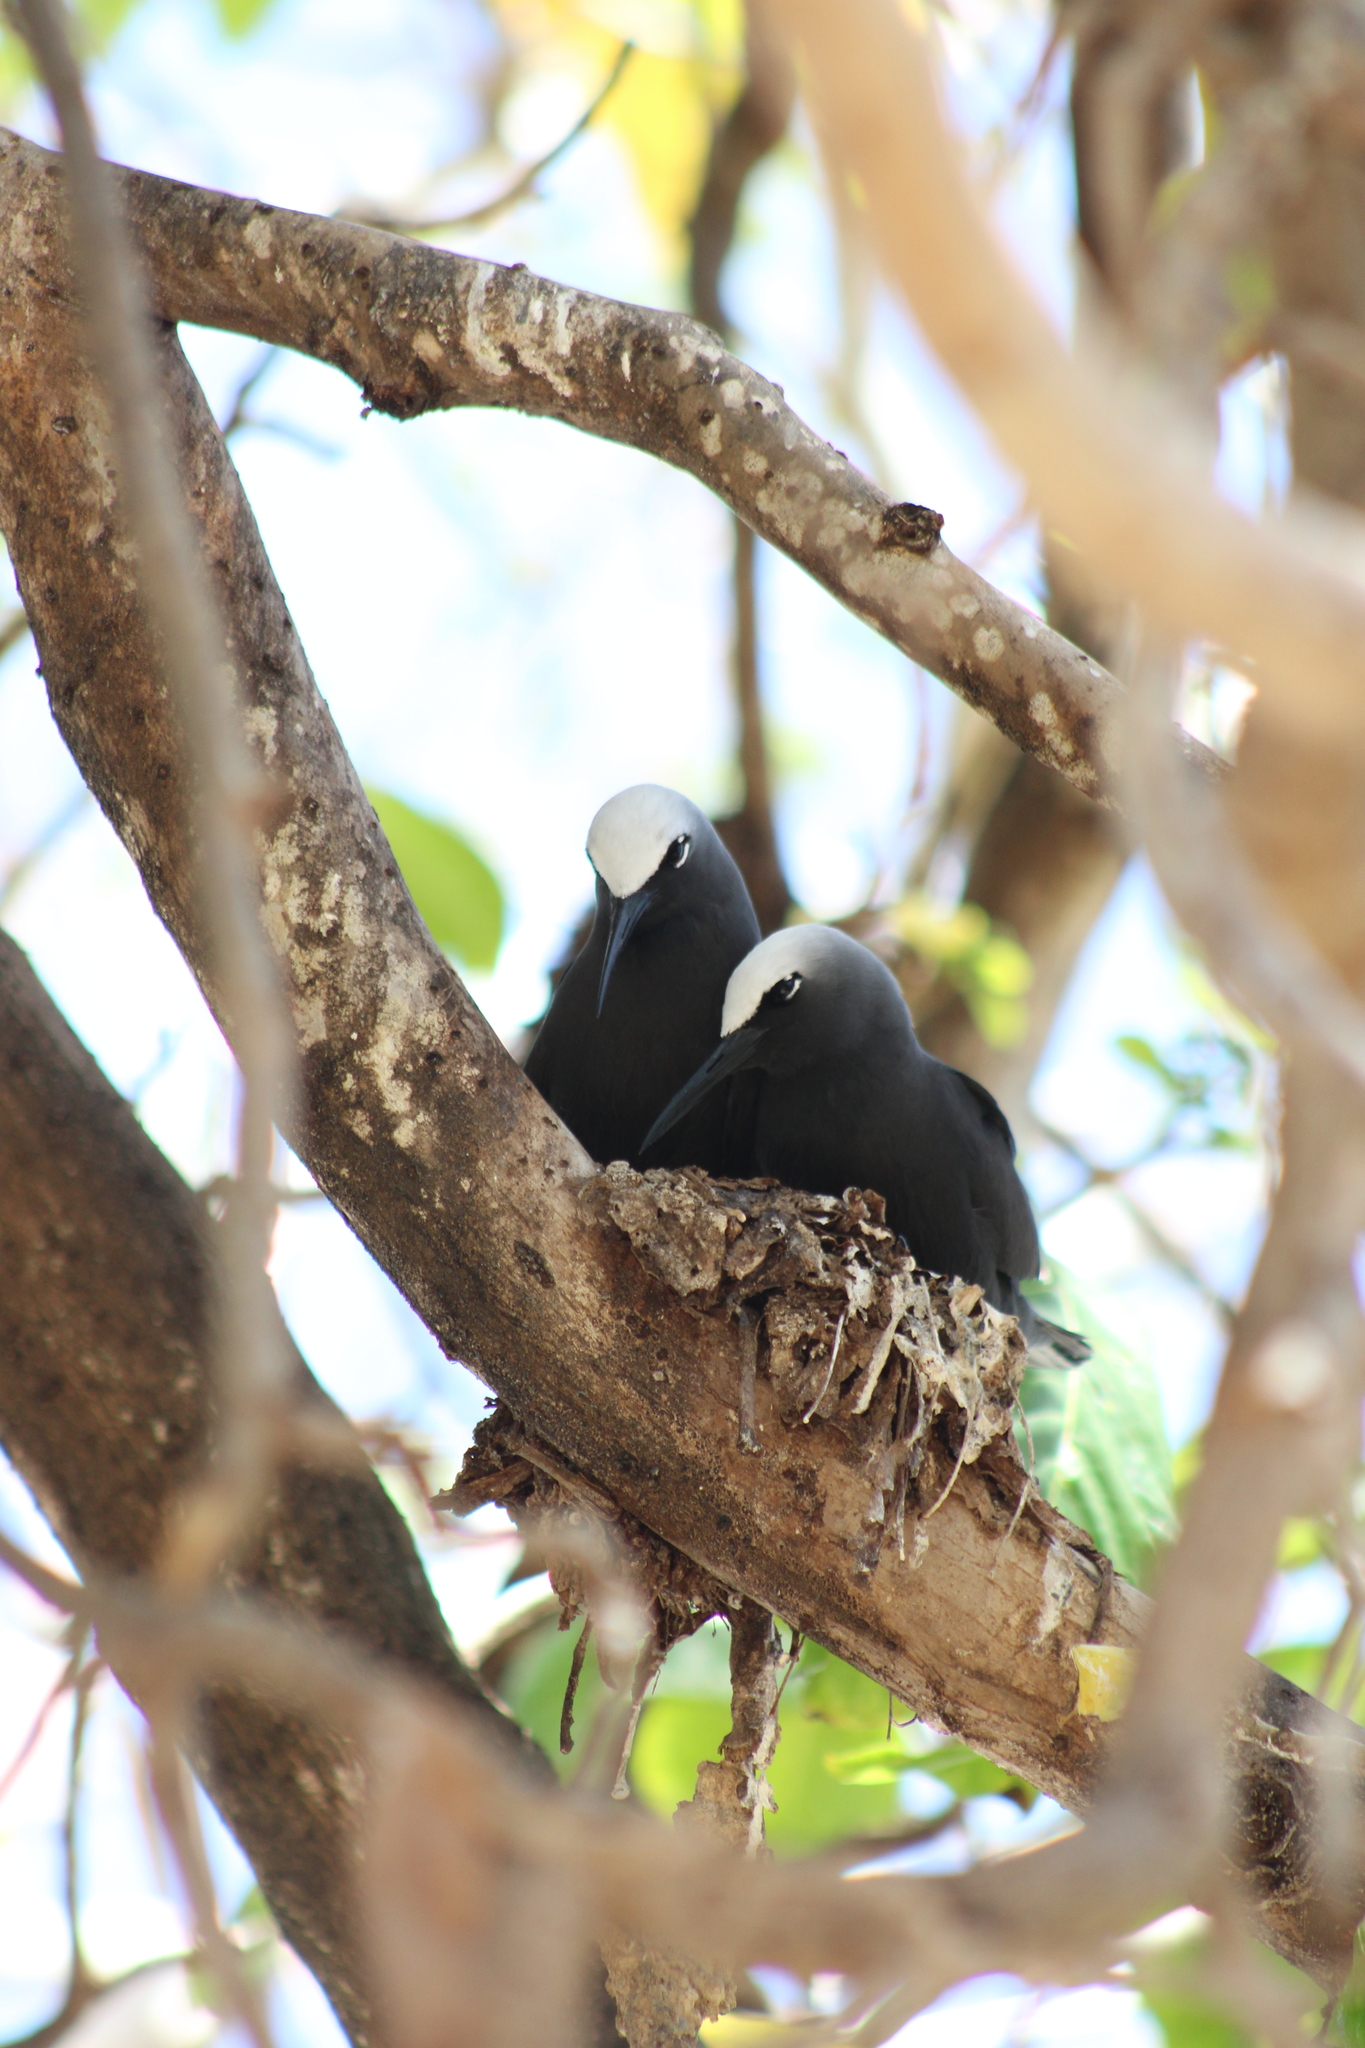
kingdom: Animalia
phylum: Chordata
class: Aves
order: Charadriiformes
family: Laridae
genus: Anous
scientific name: Anous minutus
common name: Black noddy
